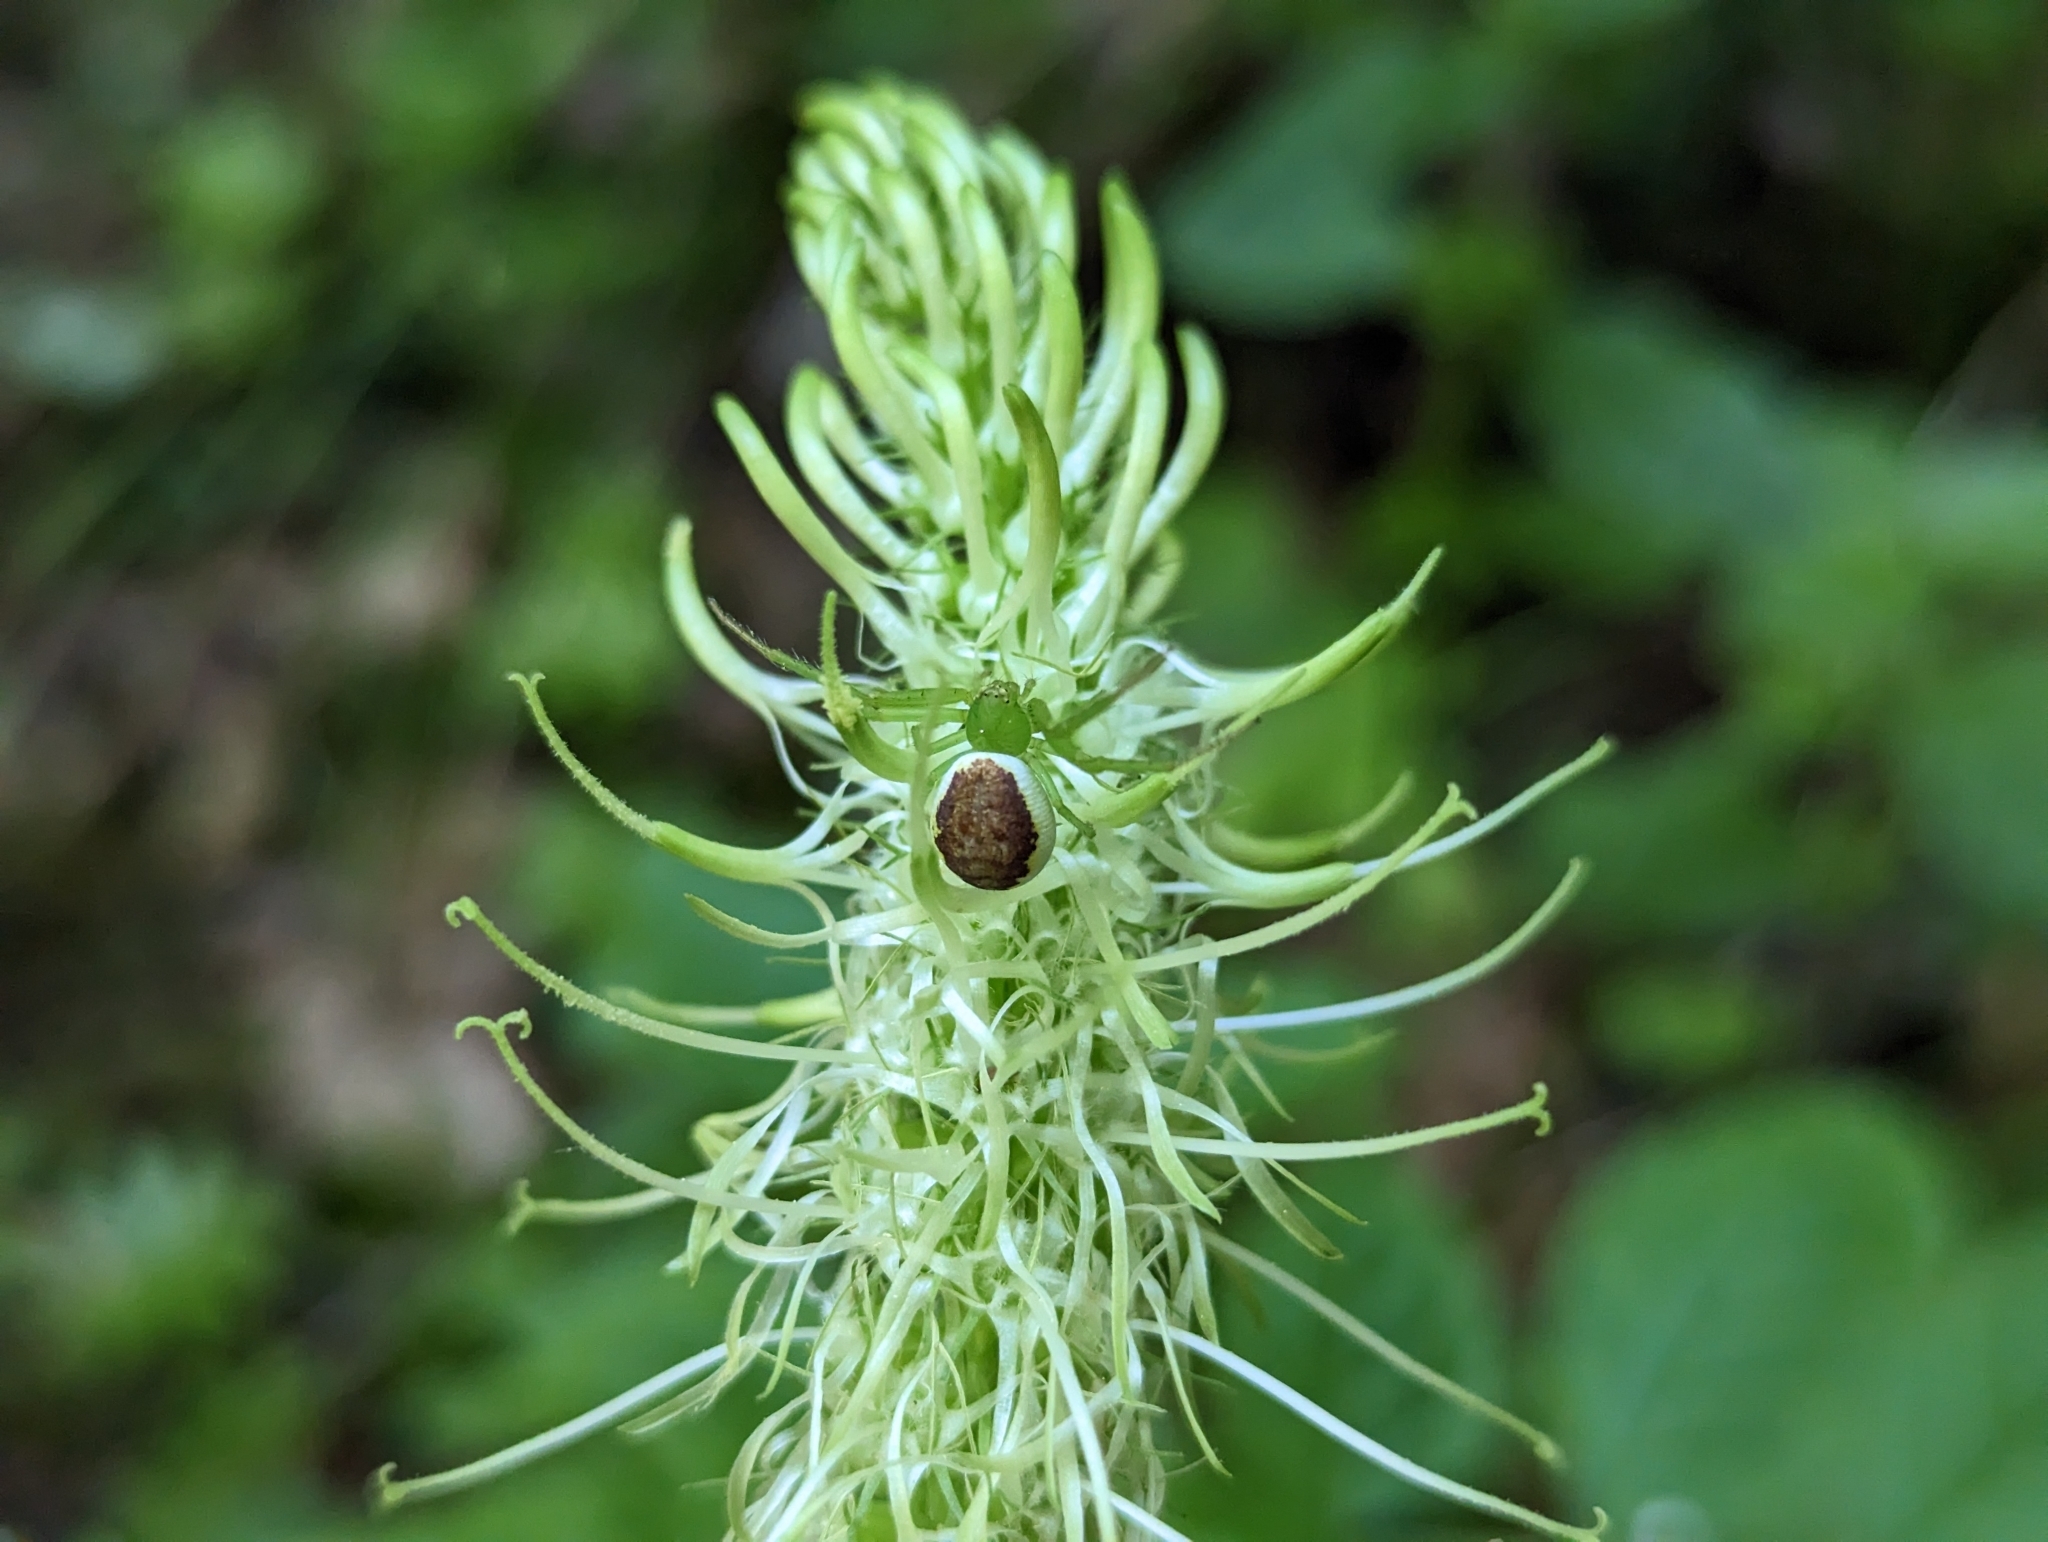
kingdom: Plantae
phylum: Tracheophyta
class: Magnoliopsida
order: Asterales
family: Campanulaceae
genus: Phyteuma
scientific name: Phyteuma spicatum
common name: Spiked rampion
